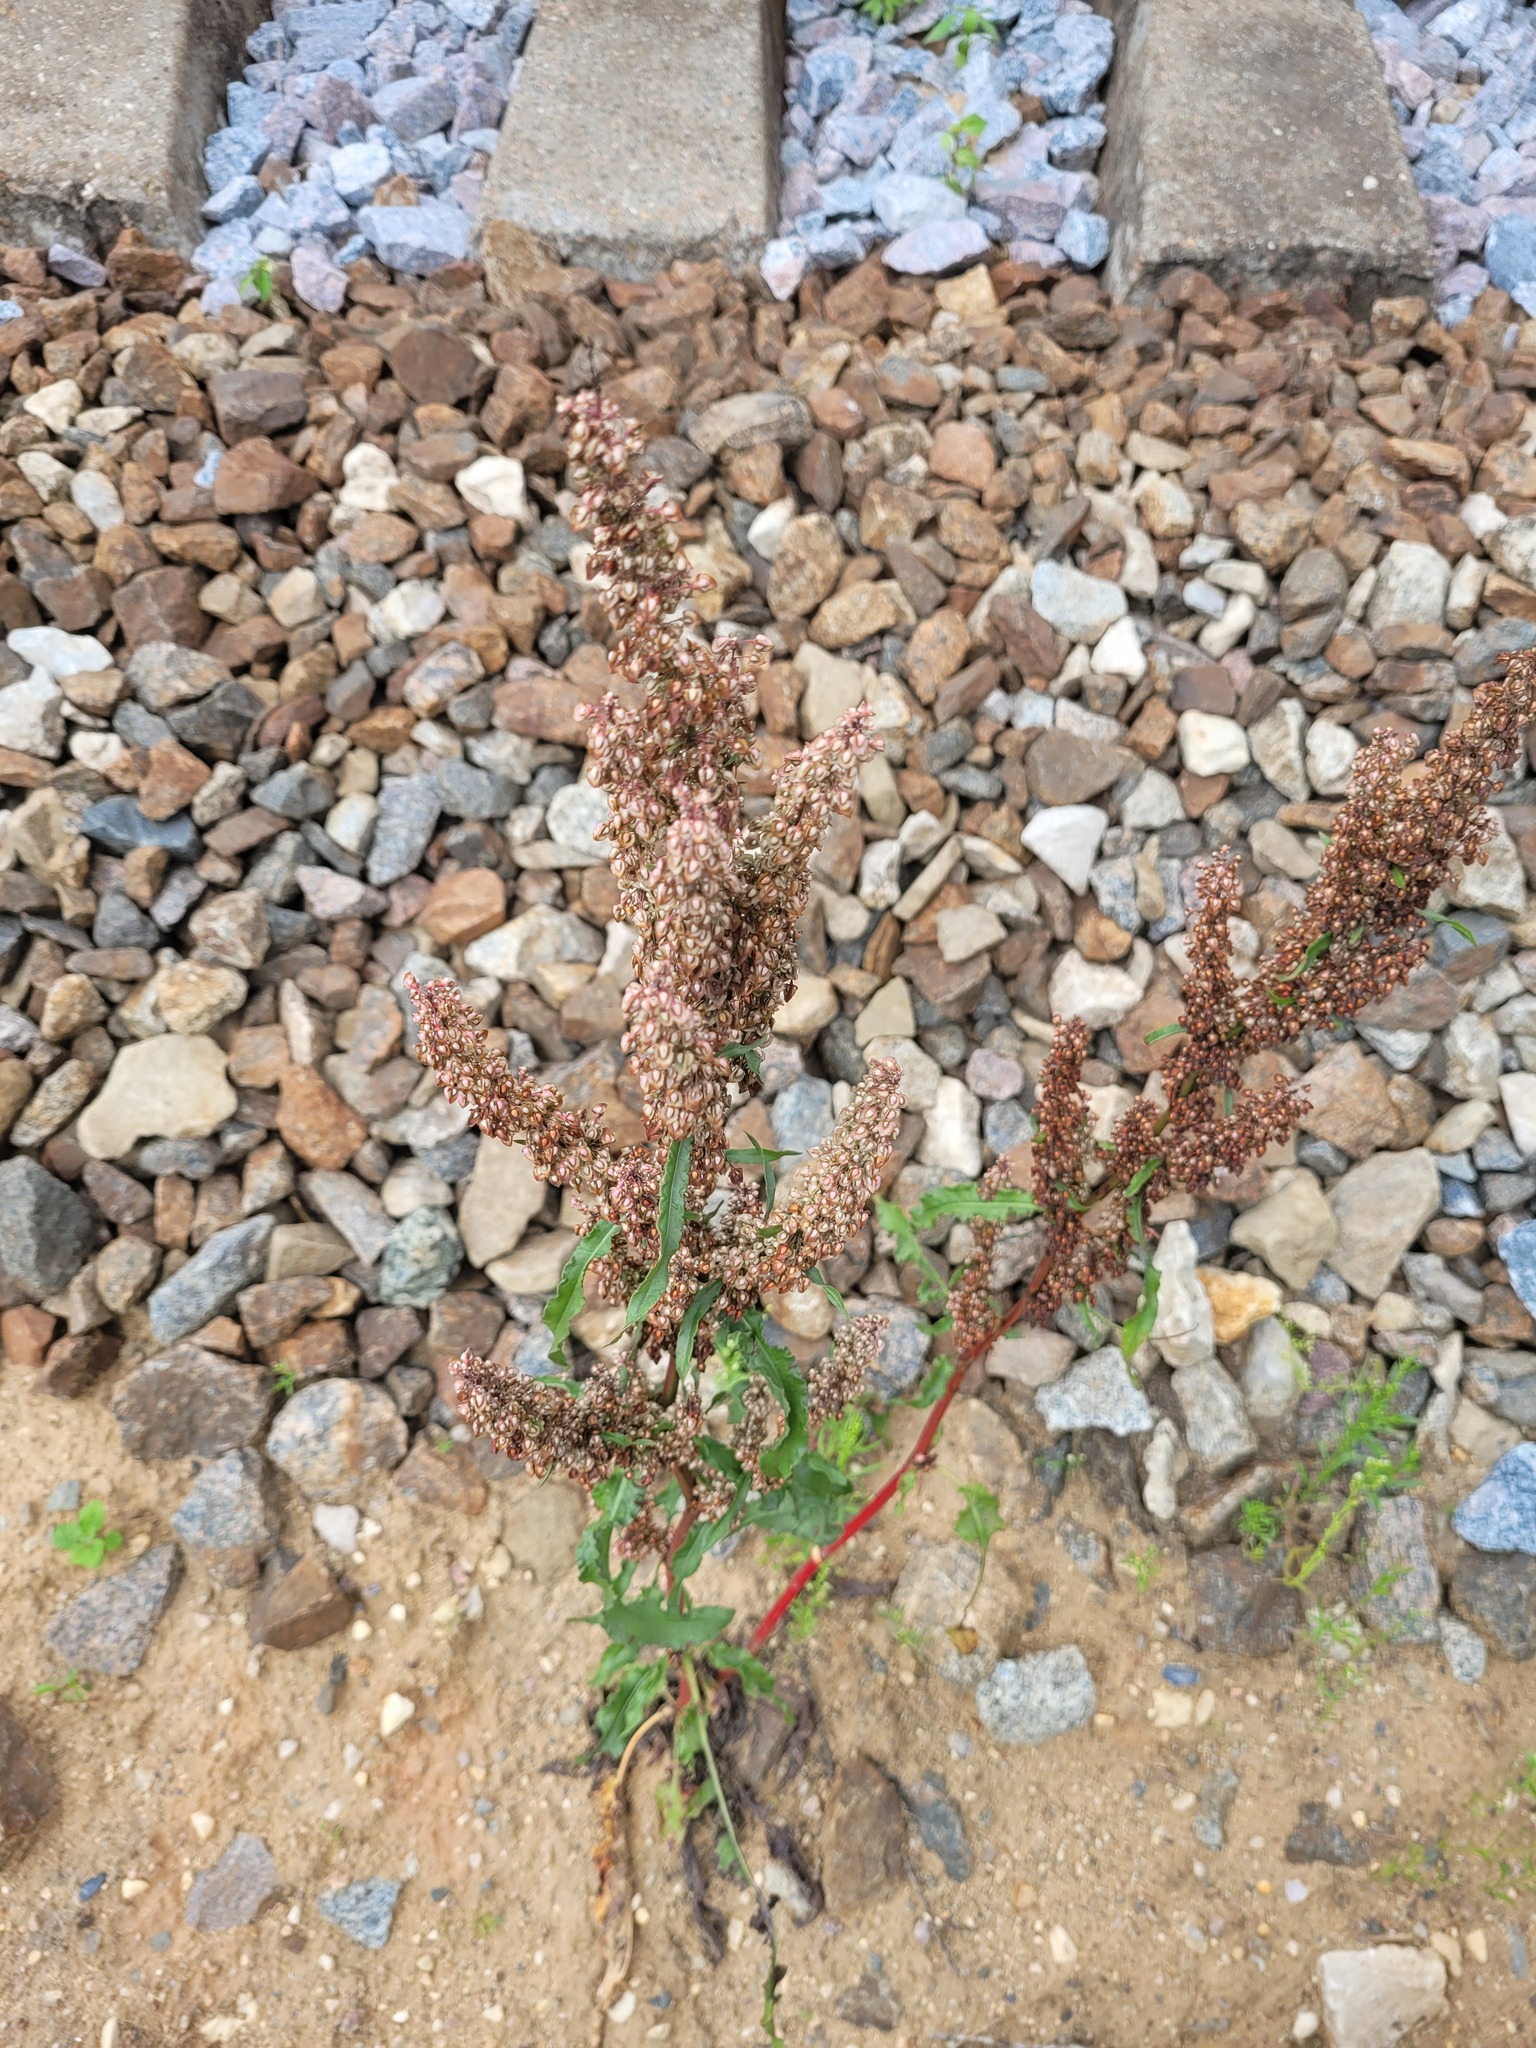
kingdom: Plantae
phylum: Tracheophyta
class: Magnoliopsida
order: Caryophyllales
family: Polygonaceae
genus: Rumex
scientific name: Rumex crispus
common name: Curled dock
